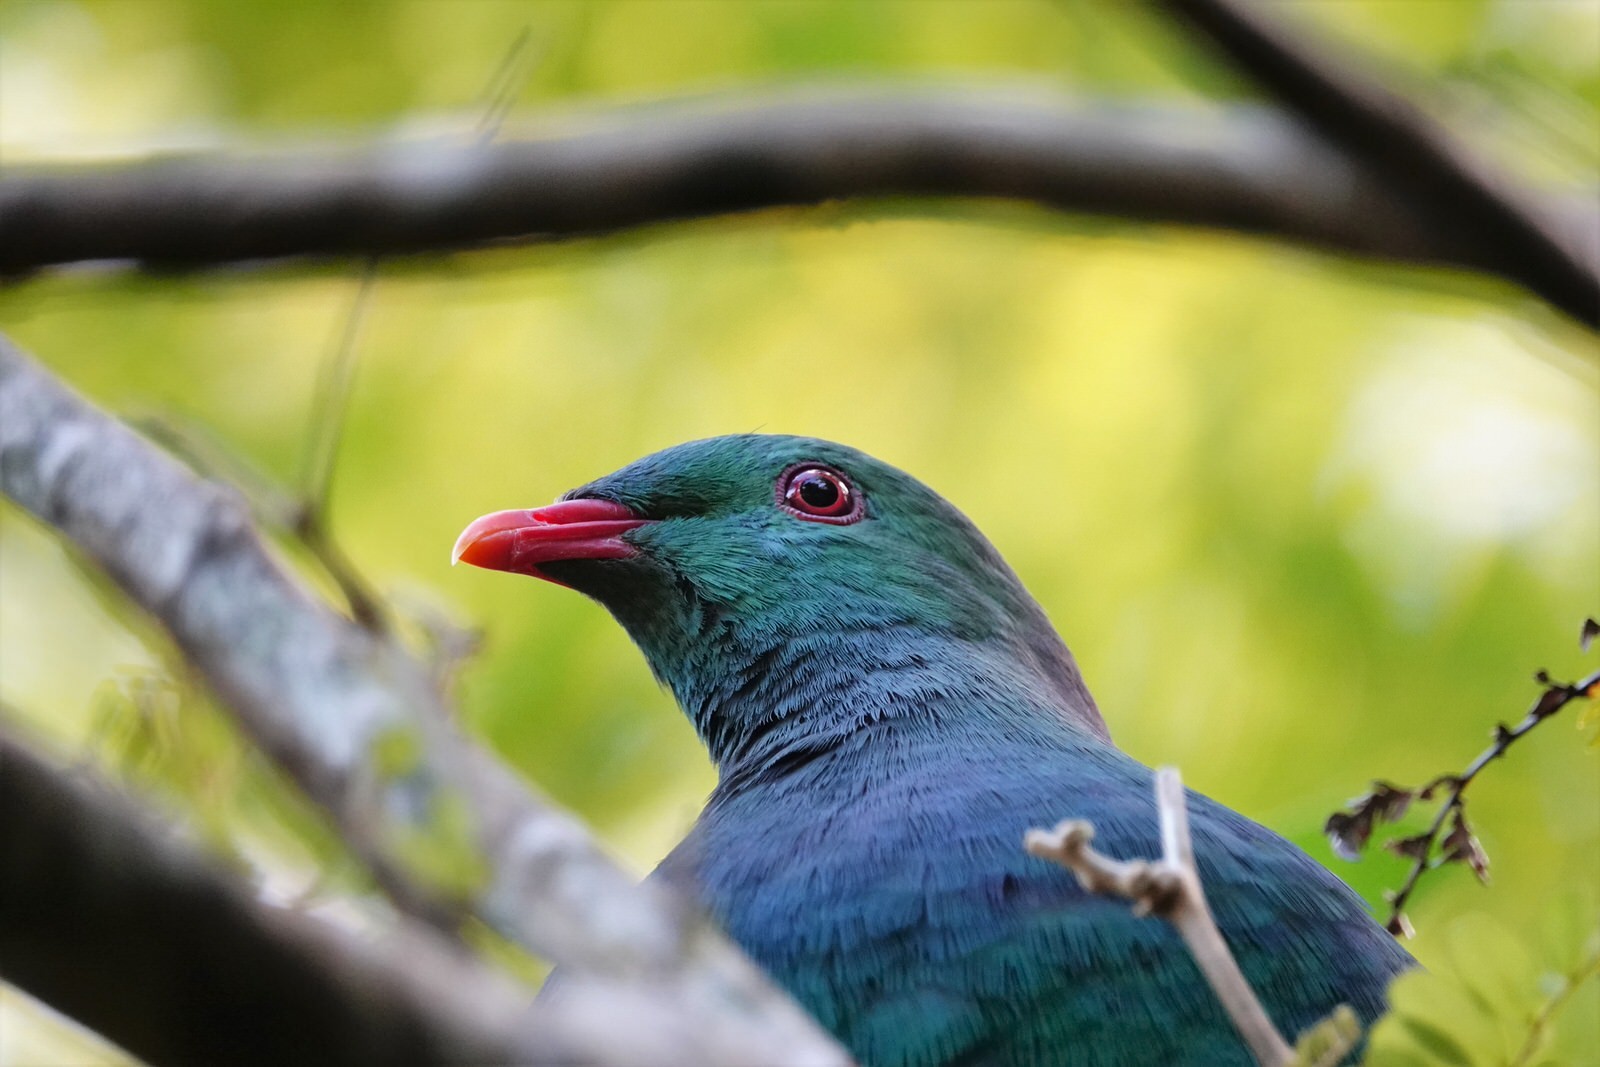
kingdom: Animalia
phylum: Chordata
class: Aves
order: Columbiformes
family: Columbidae
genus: Hemiphaga
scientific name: Hemiphaga novaeseelandiae
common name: New zealand pigeon
